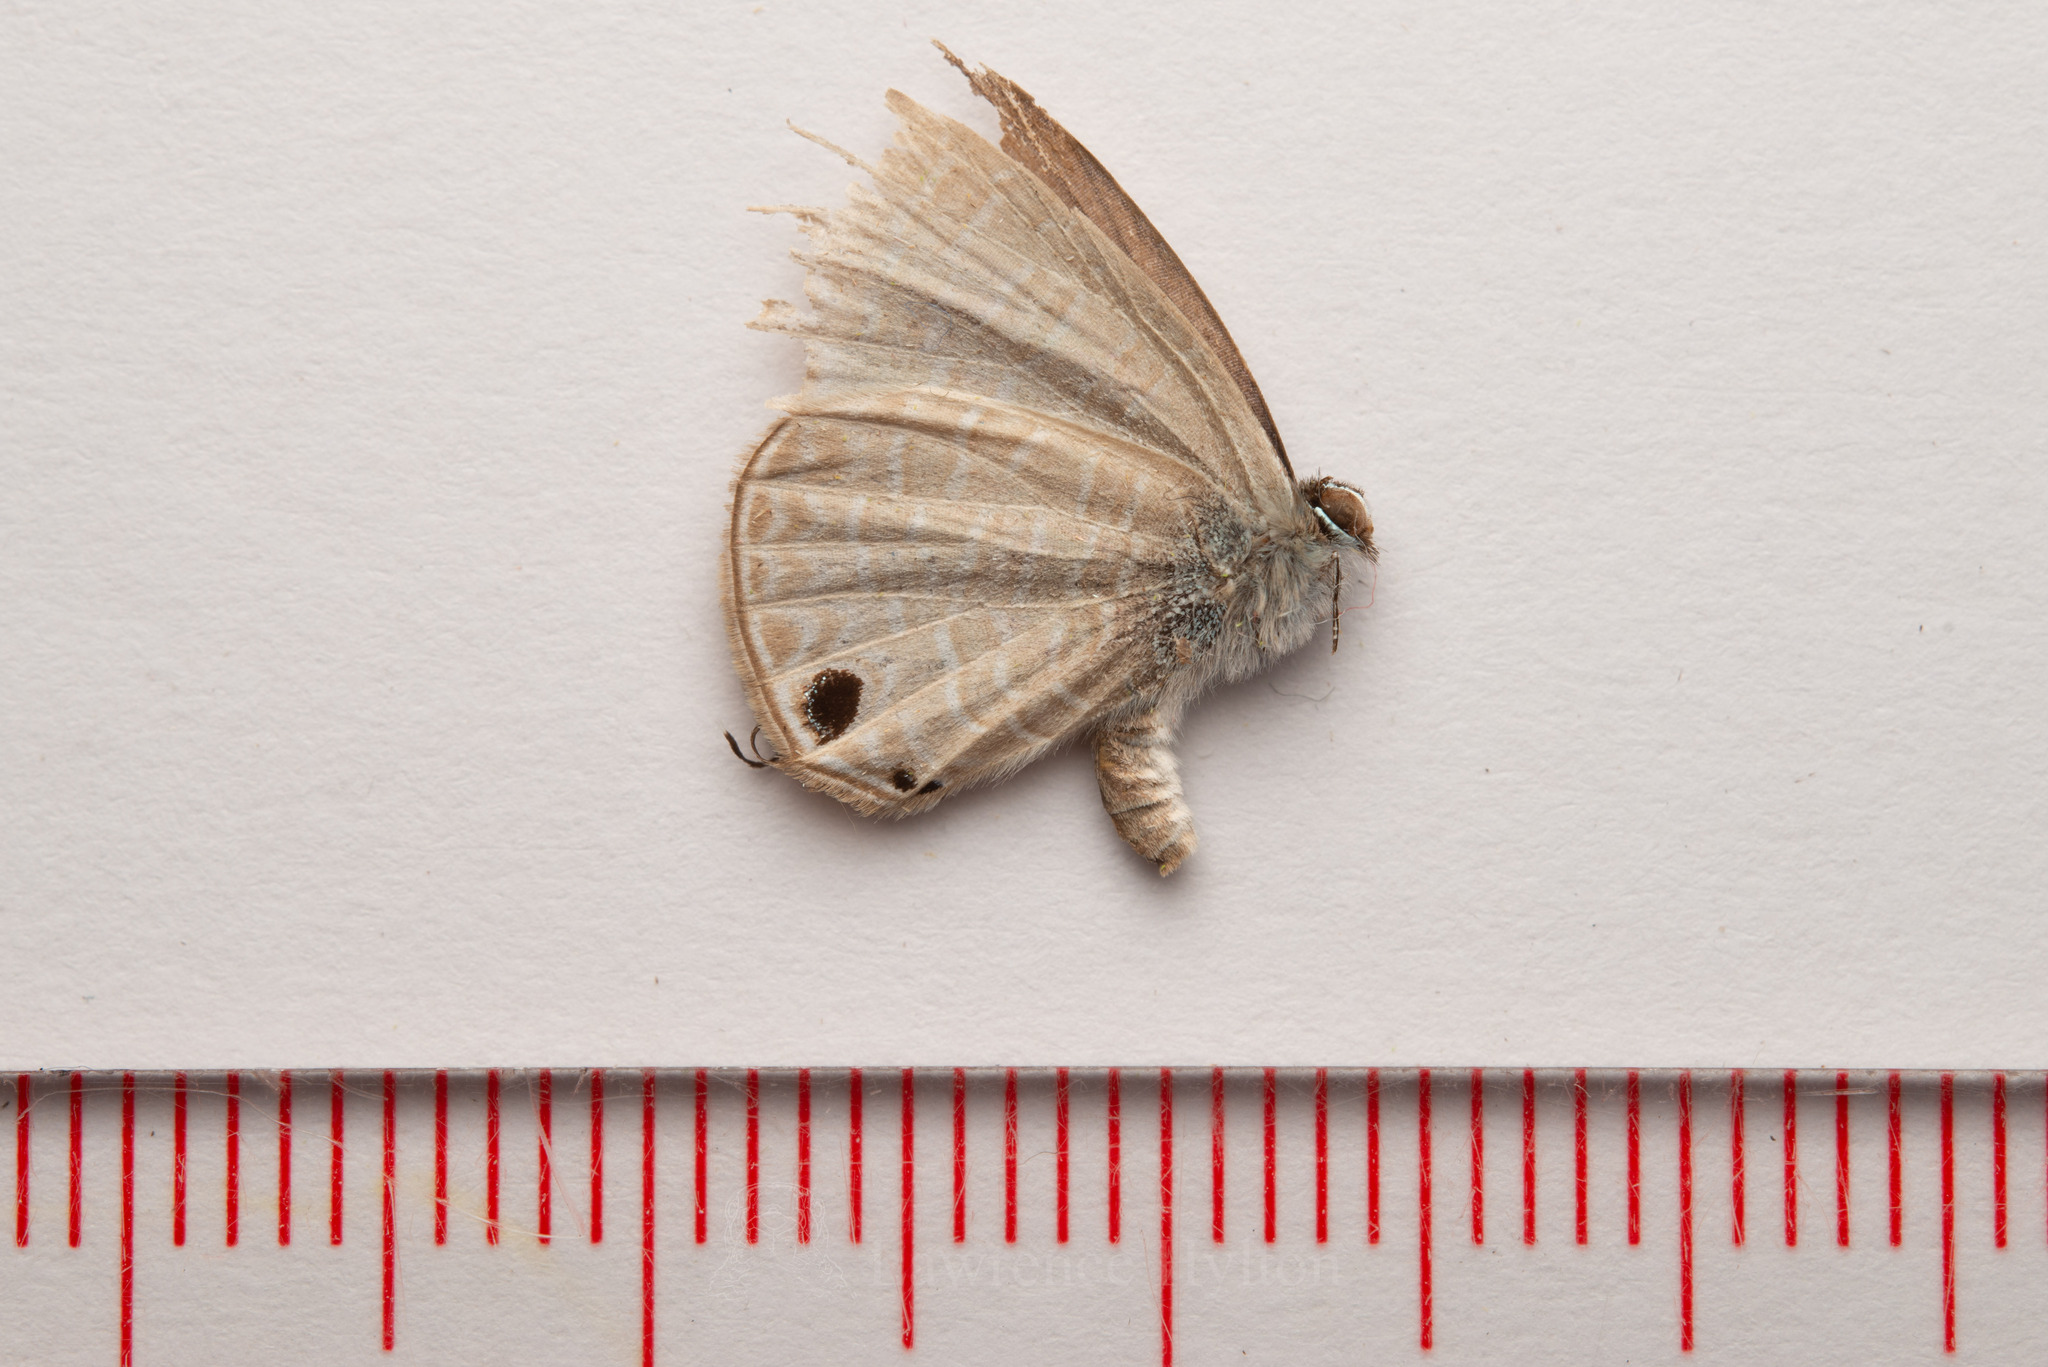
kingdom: Animalia
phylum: Arthropoda
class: Insecta
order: Lepidoptera
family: Lycaenidae
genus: Nacaduba
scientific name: Nacaduba kurava
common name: Transparent 6-line blue
